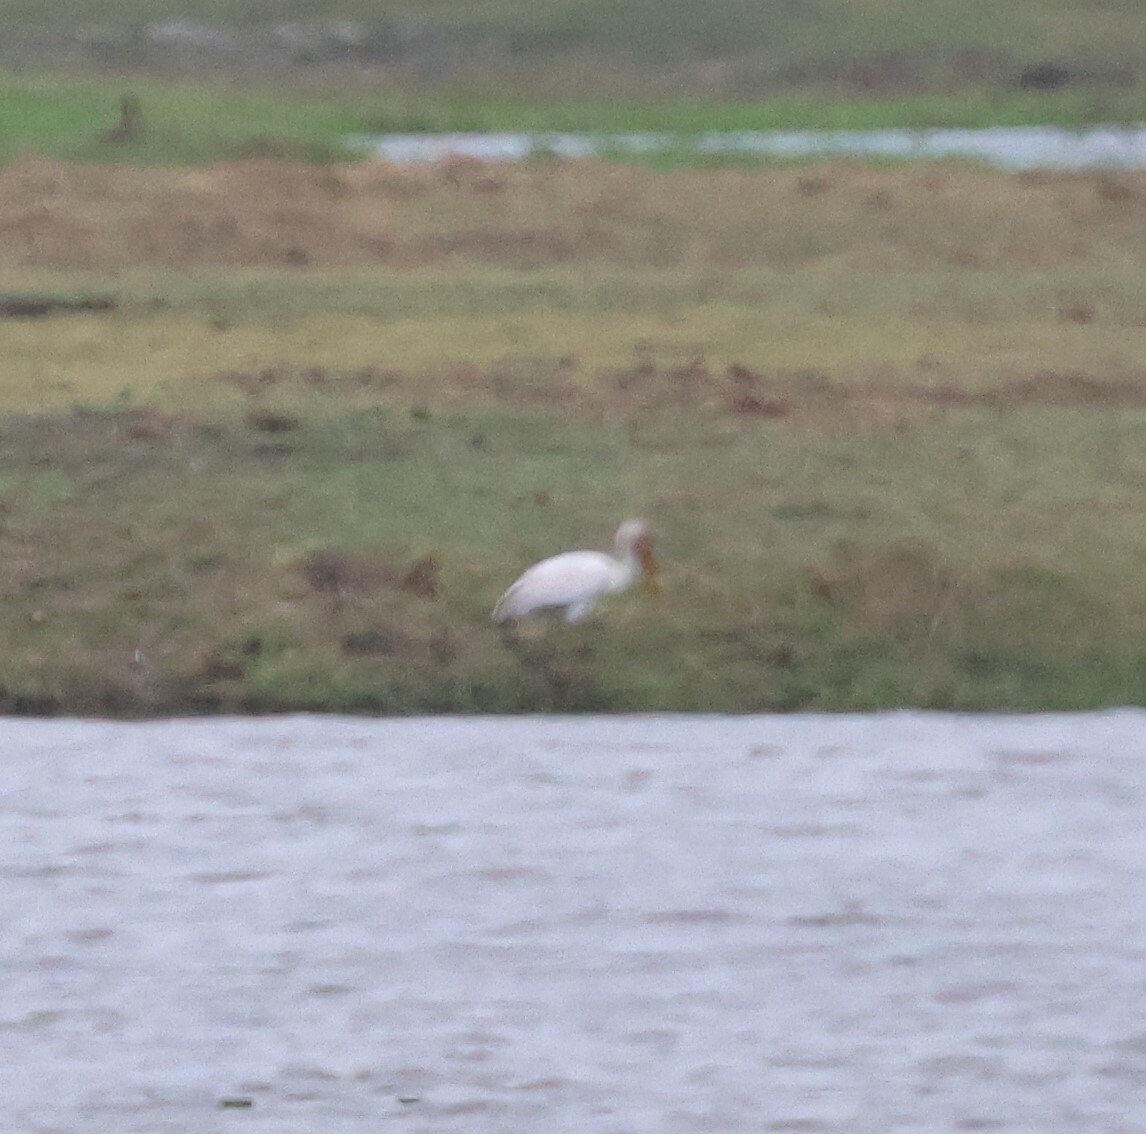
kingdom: Animalia
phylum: Chordata
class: Aves
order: Pelecaniformes
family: Threskiornithidae
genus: Platalea
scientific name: Platalea alba
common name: African spoonbill
